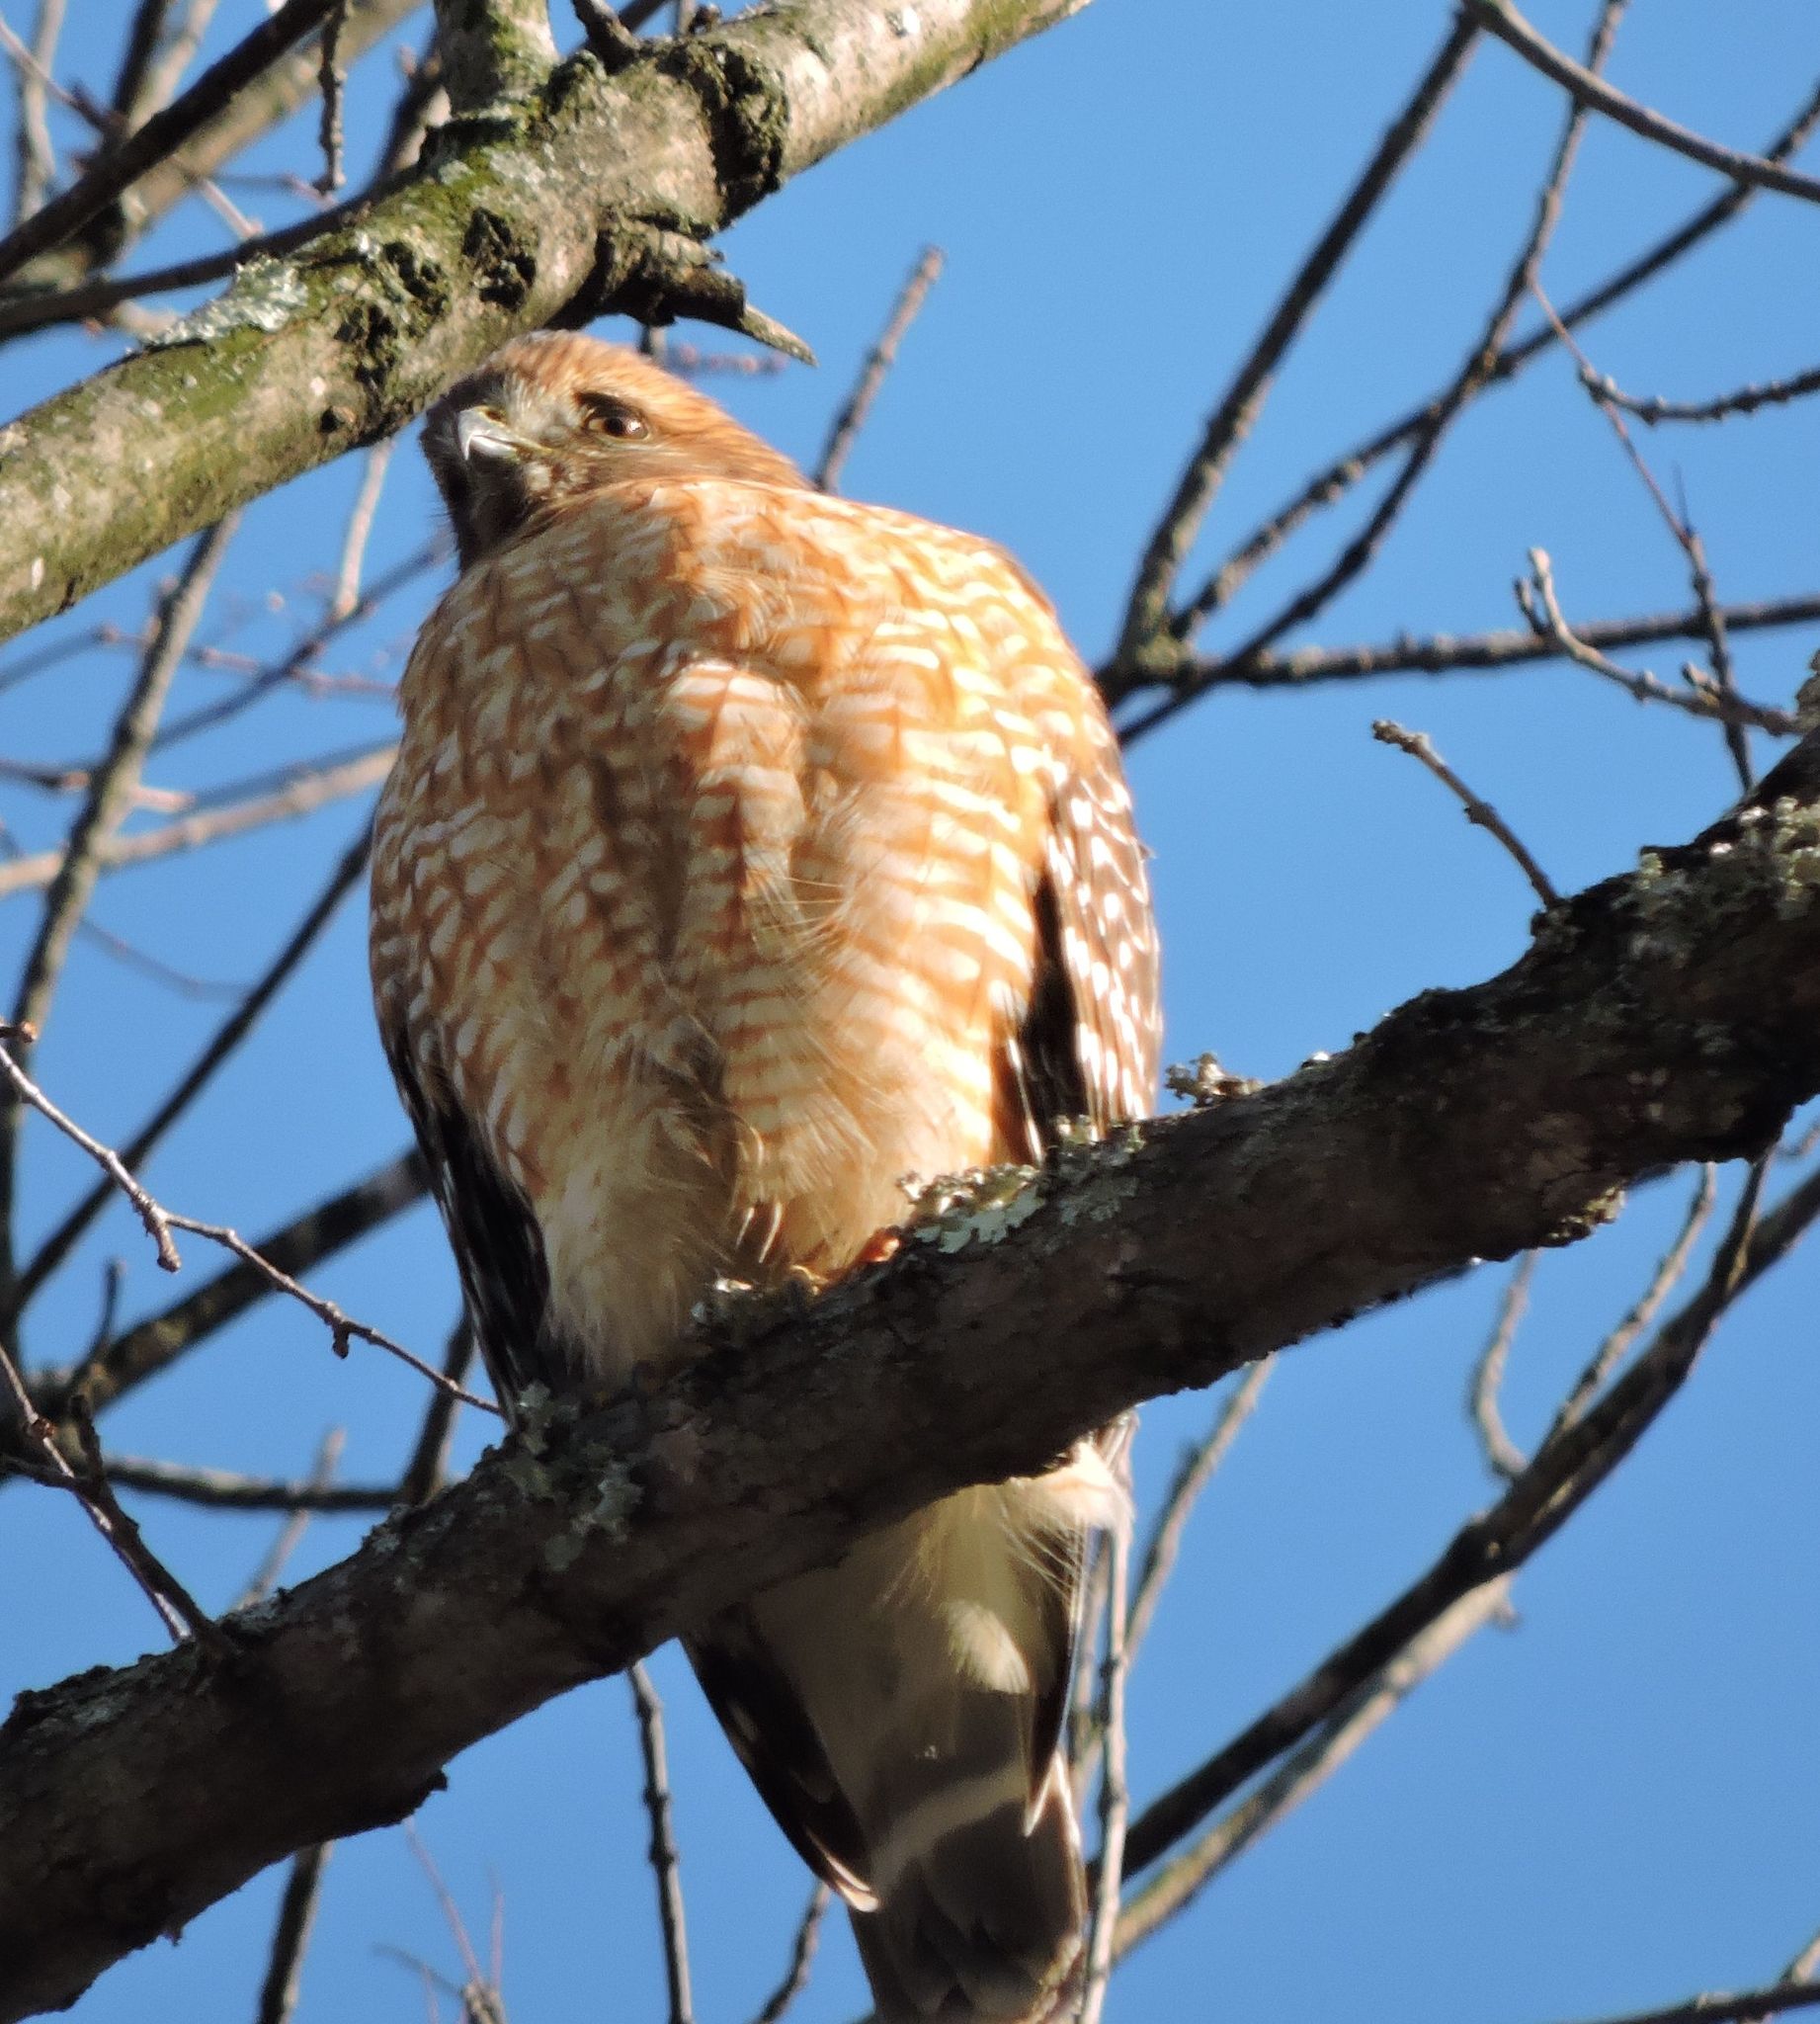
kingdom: Animalia
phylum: Chordata
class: Aves
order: Accipitriformes
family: Accipitridae
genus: Buteo
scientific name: Buteo lineatus
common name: Red-shouldered hawk
